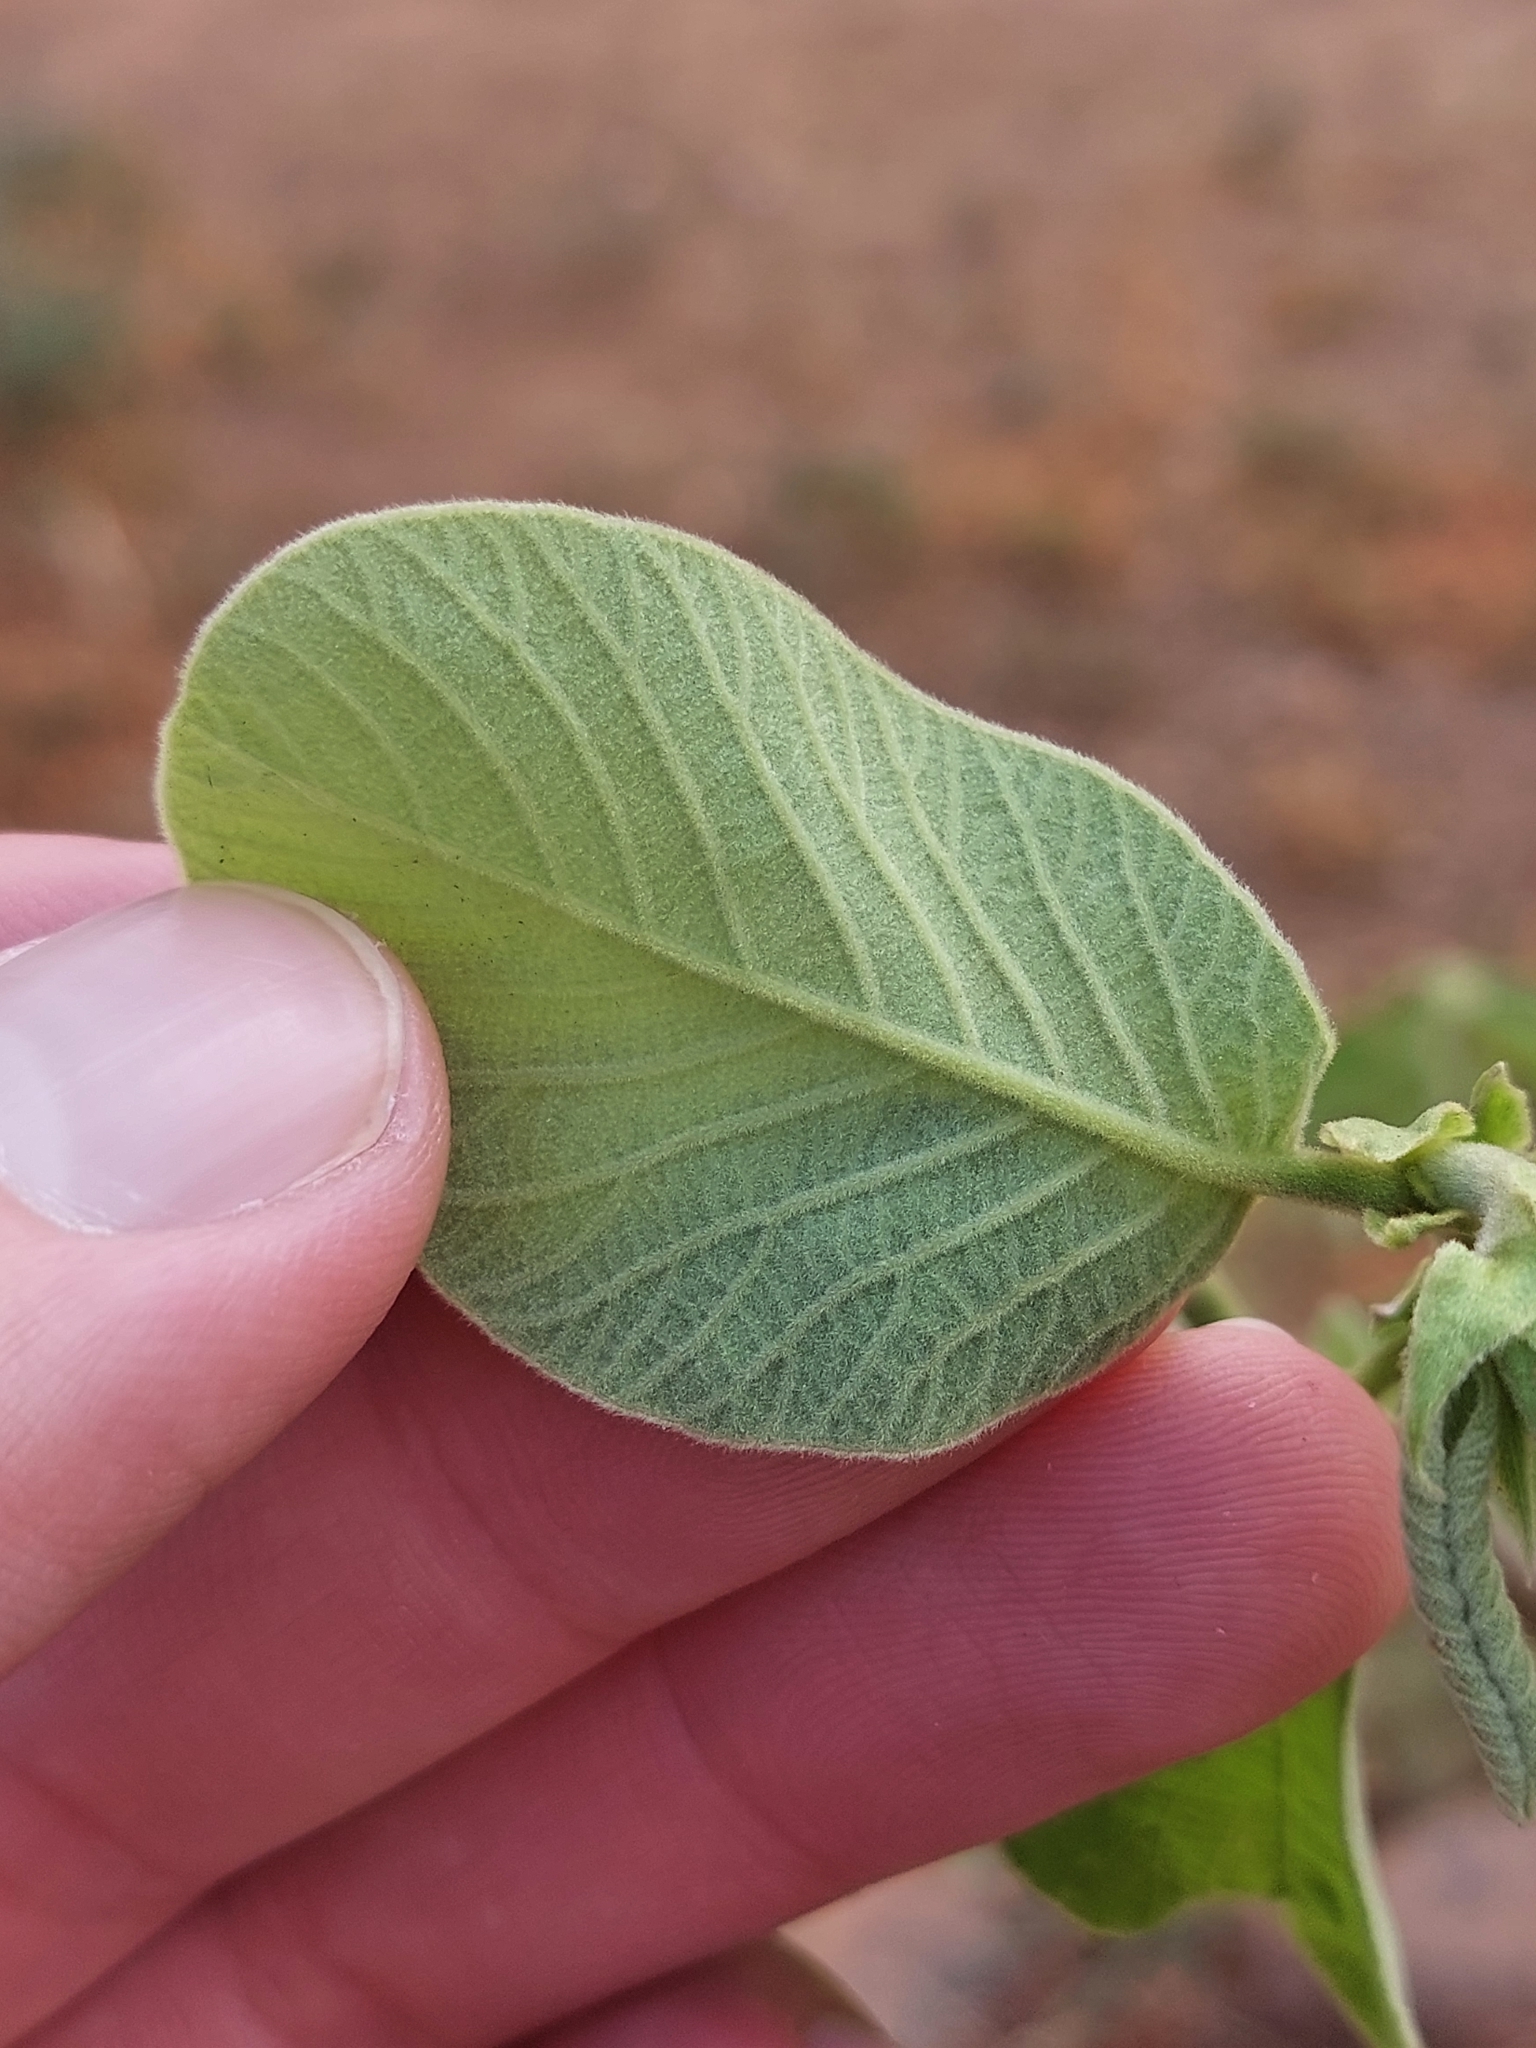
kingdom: Plantae
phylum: Tracheophyta
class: Magnoliopsida
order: Malpighiales
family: Phyllanthaceae
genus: Bridelia
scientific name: Bridelia mollis
